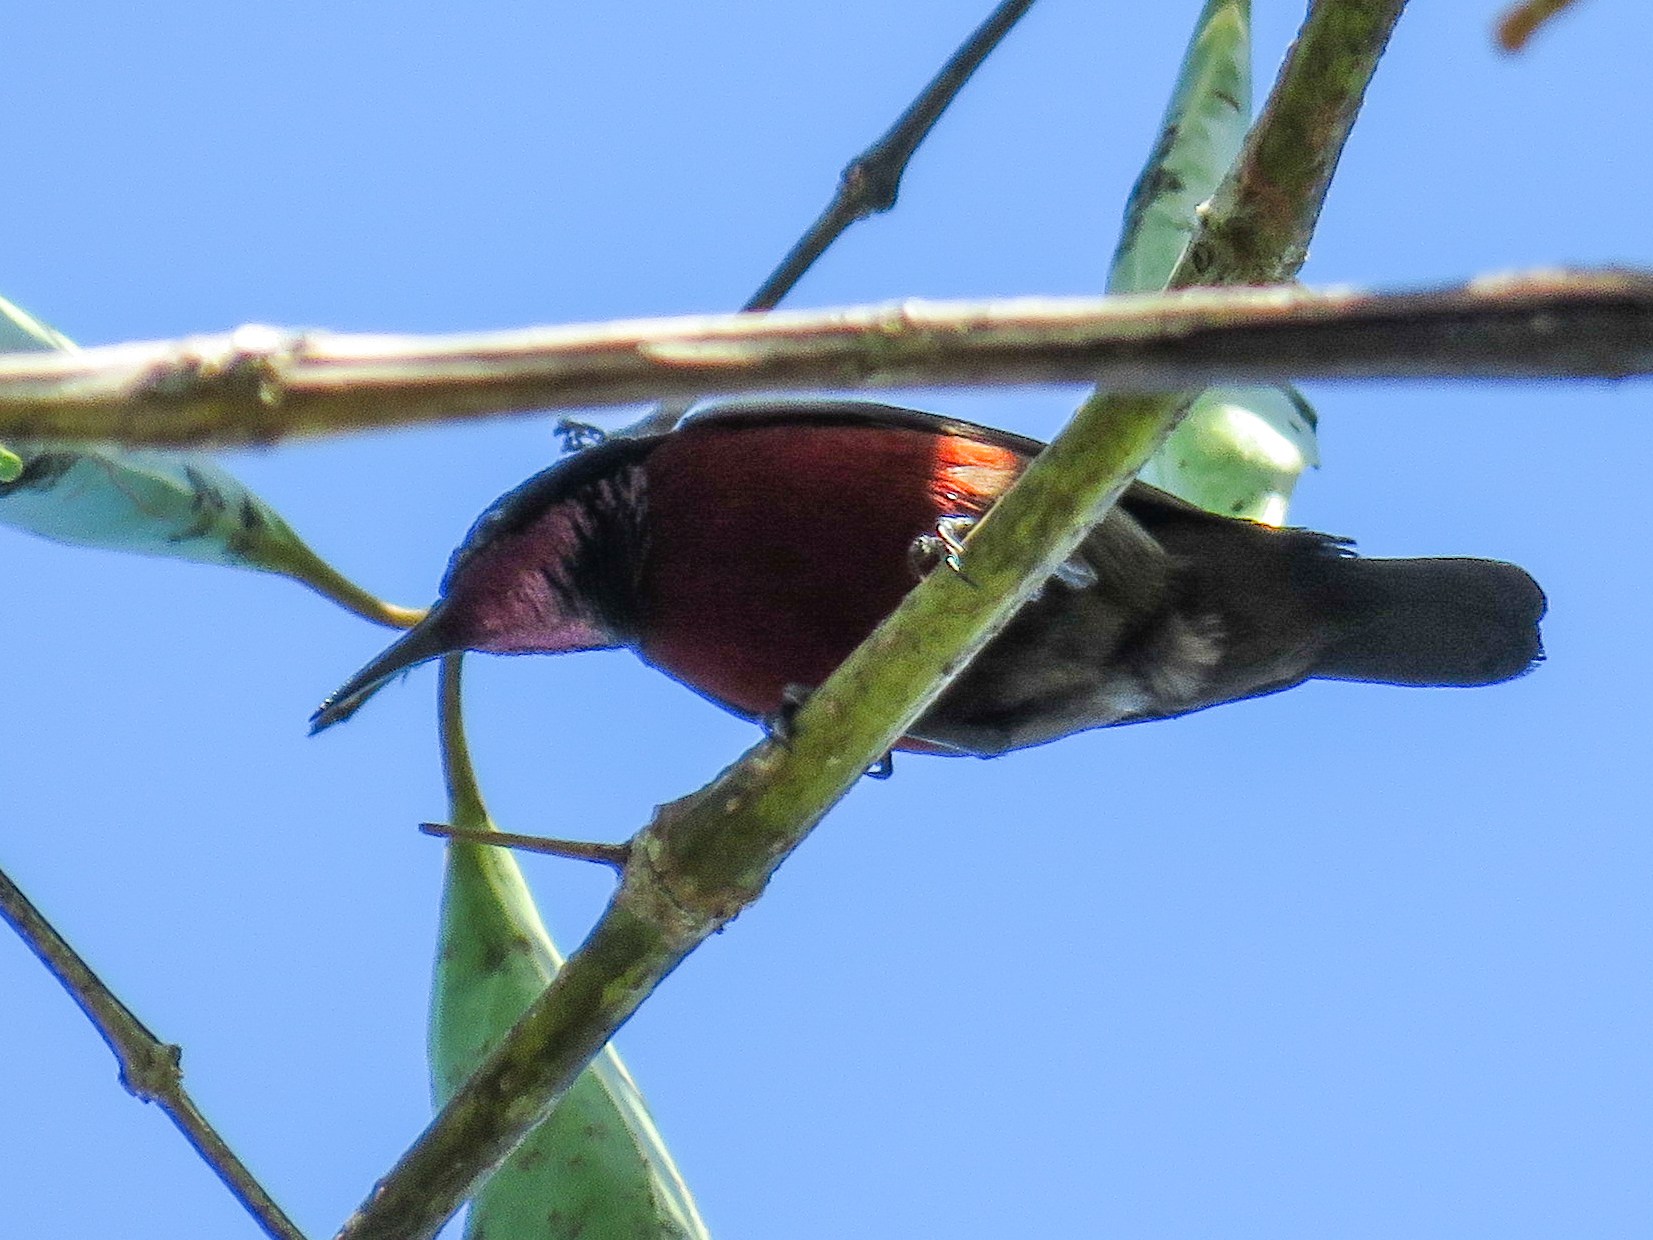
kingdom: Animalia
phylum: Chordata
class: Aves
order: Passeriformes
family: Nectariniidae
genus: Leptocoma
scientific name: Leptocoma brasiliana
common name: Van hasselt's sunbird
